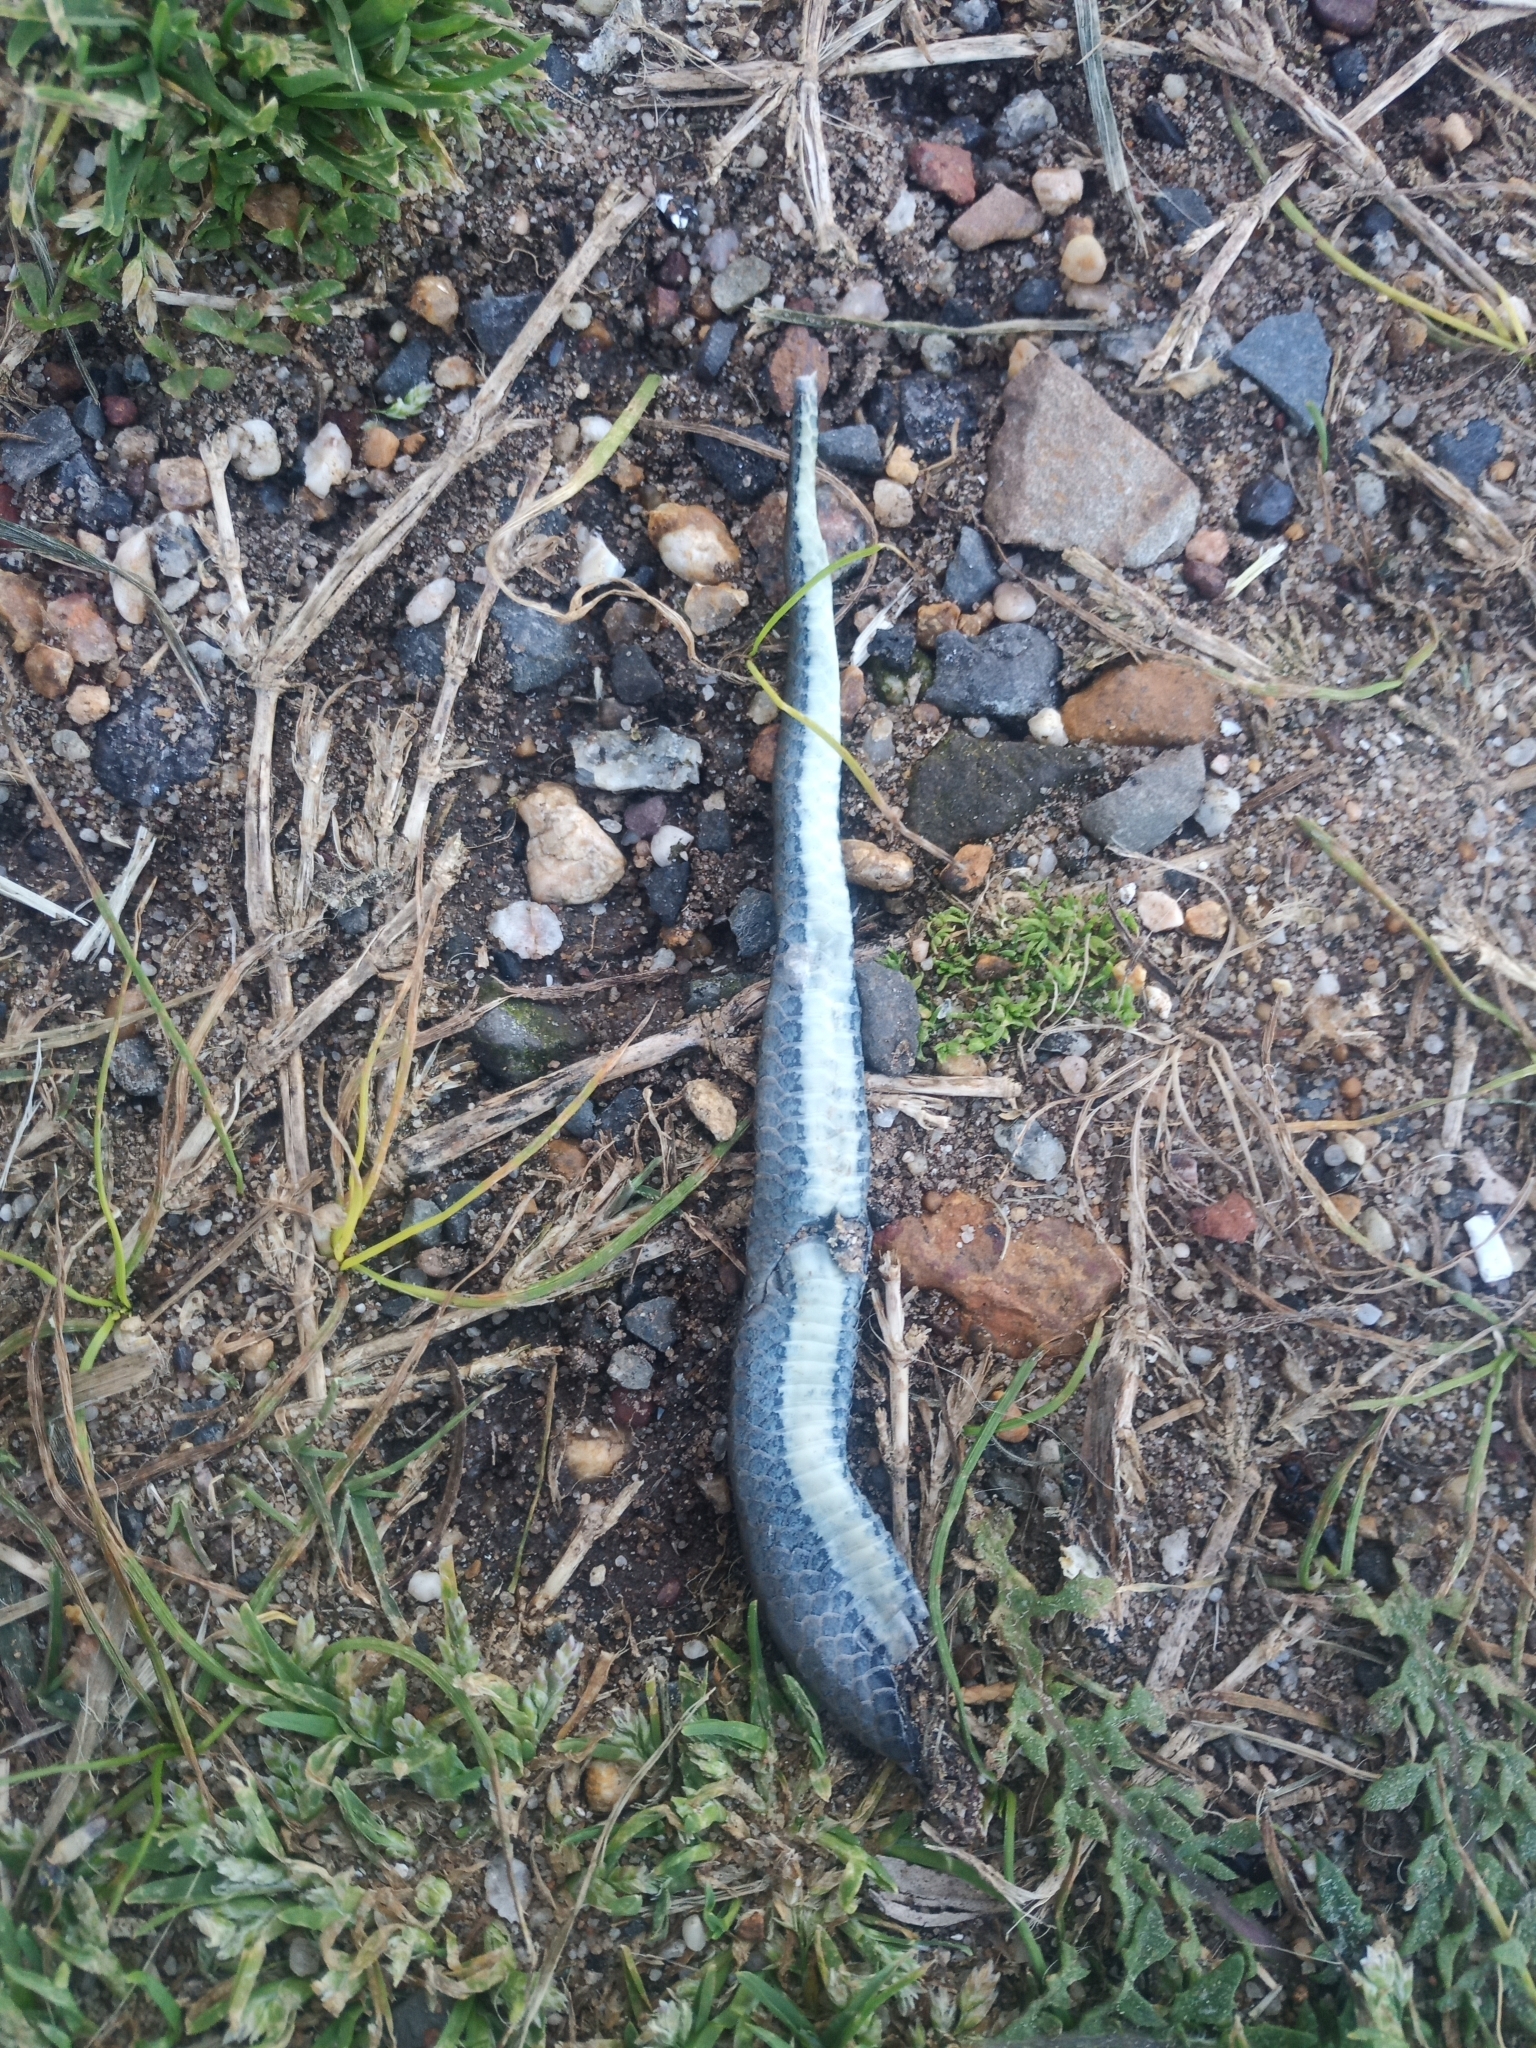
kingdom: Animalia
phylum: Chordata
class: Squamata
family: Pseudoxyrhophiidae
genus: Duberria
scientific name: Duberria lutrix
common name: Common slug eater
